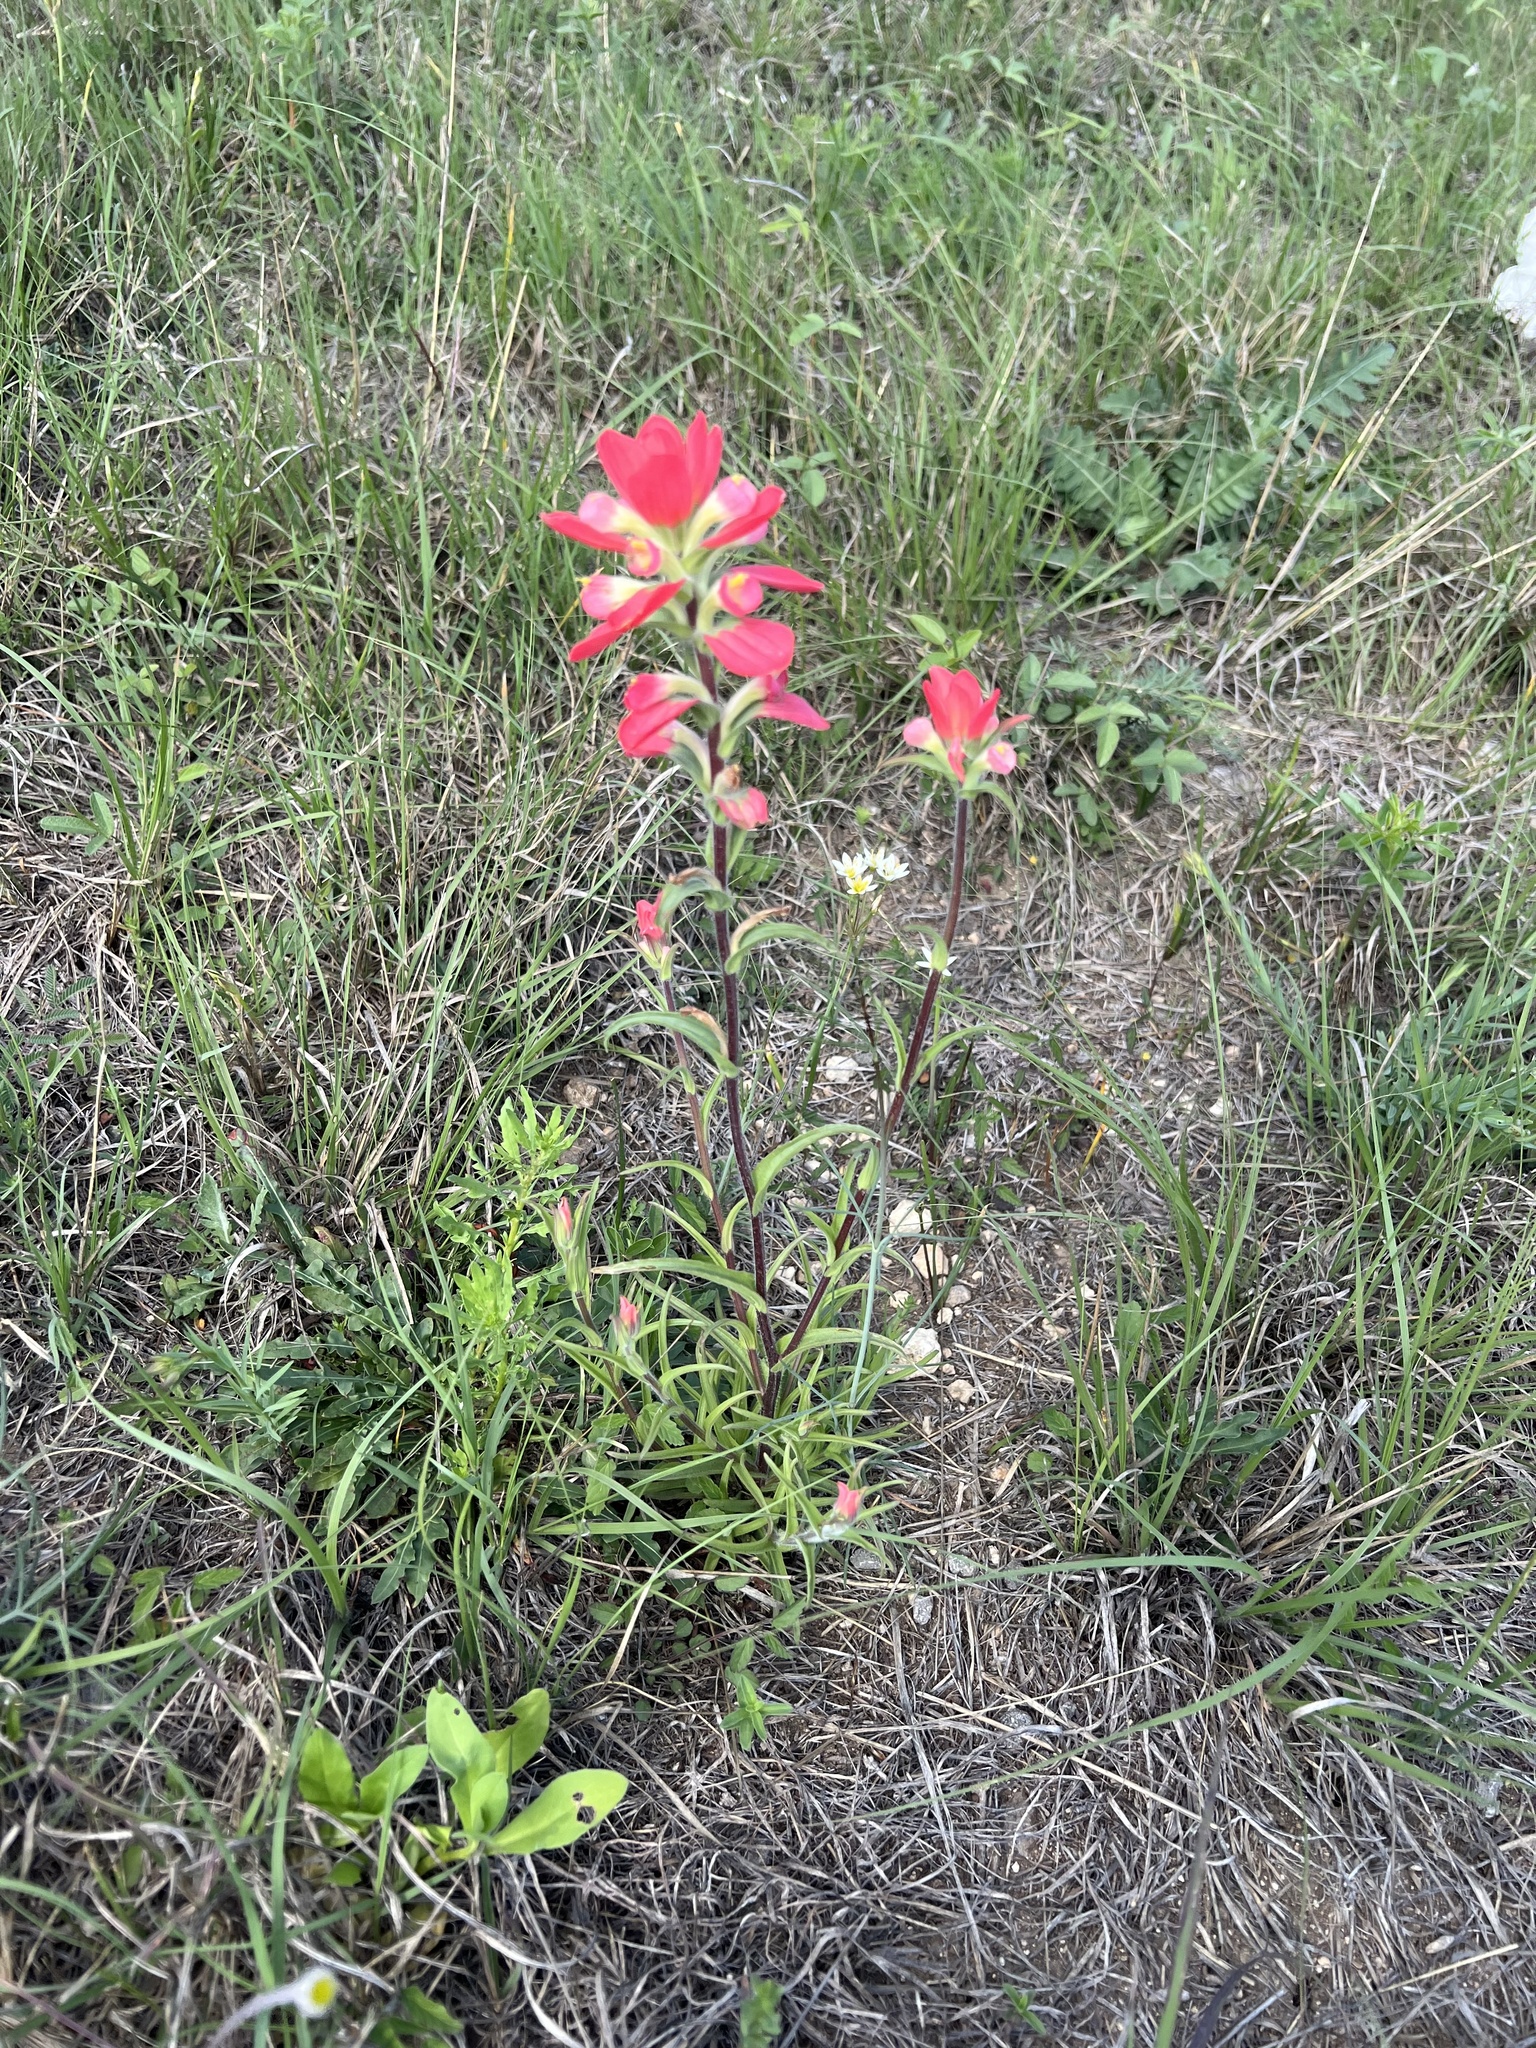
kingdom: Plantae
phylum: Tracheophyta
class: Magnoliopsida
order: Lamiales
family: Orobanchaceae
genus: Castilleja
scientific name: Castilleja indivisa
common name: Texas paintbrush
